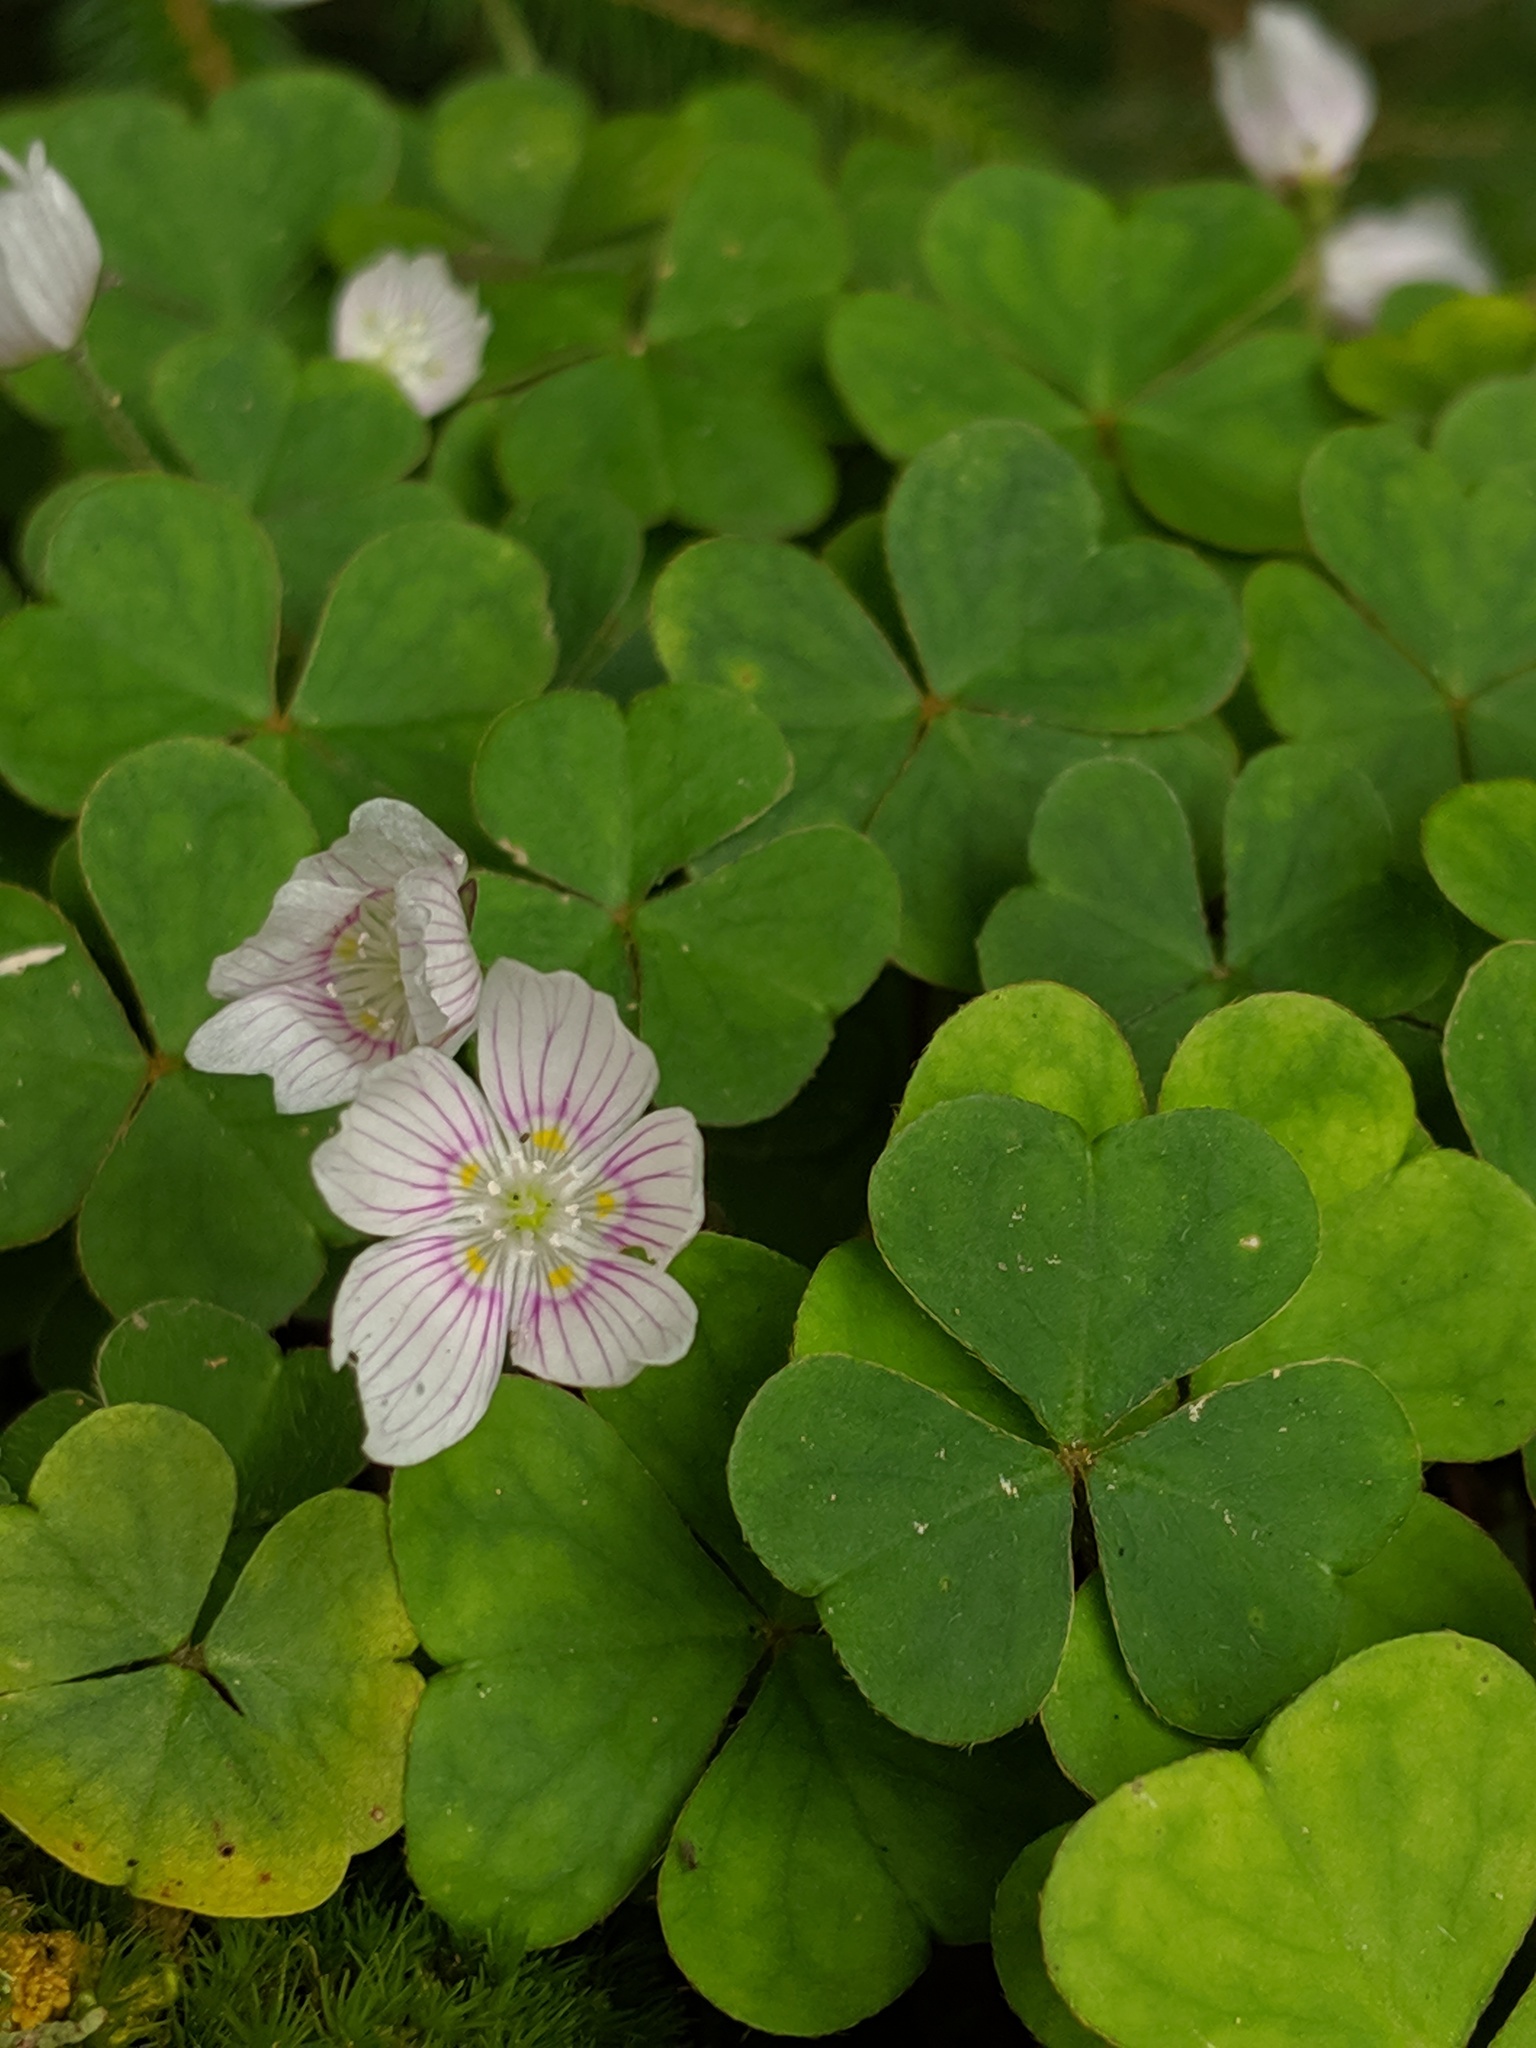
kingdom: Plantae
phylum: Tracheophyta
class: Magnoliopsida
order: Oxalidales
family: Oxalidaceae
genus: Oxalis
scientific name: Oxalis montana
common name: American wood-sorrel
